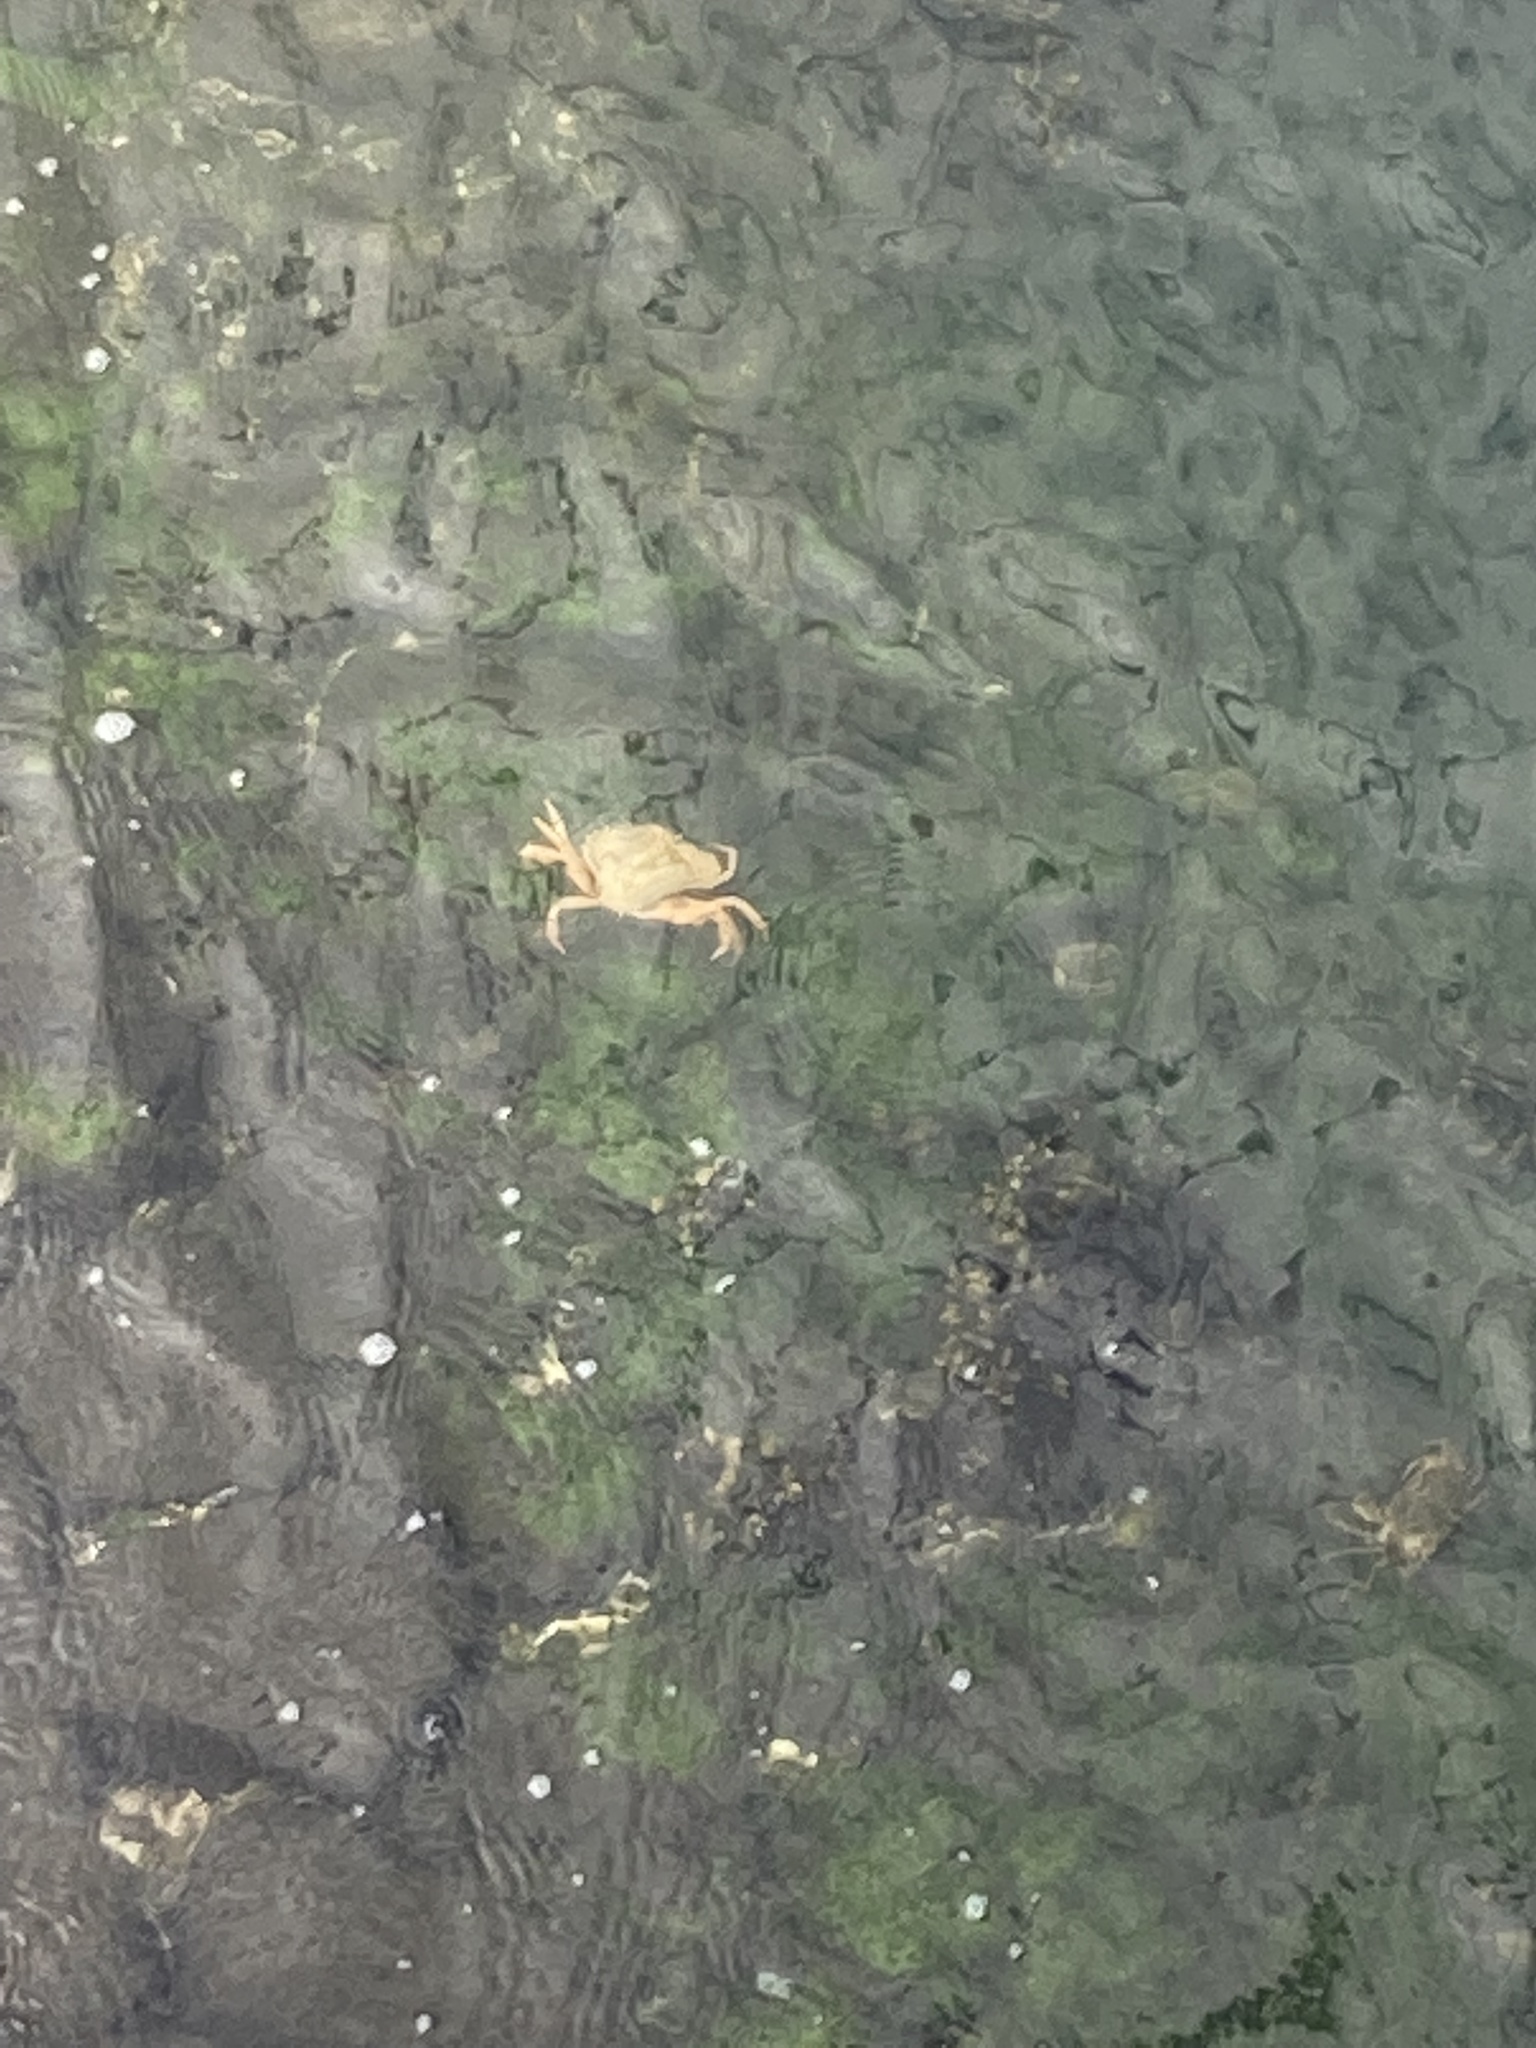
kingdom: Animalia
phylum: Arthropoda
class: Malacostraca
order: Decapoda
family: Carcinidae
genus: Carcinus
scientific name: Carcinus maenas
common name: European green crab
